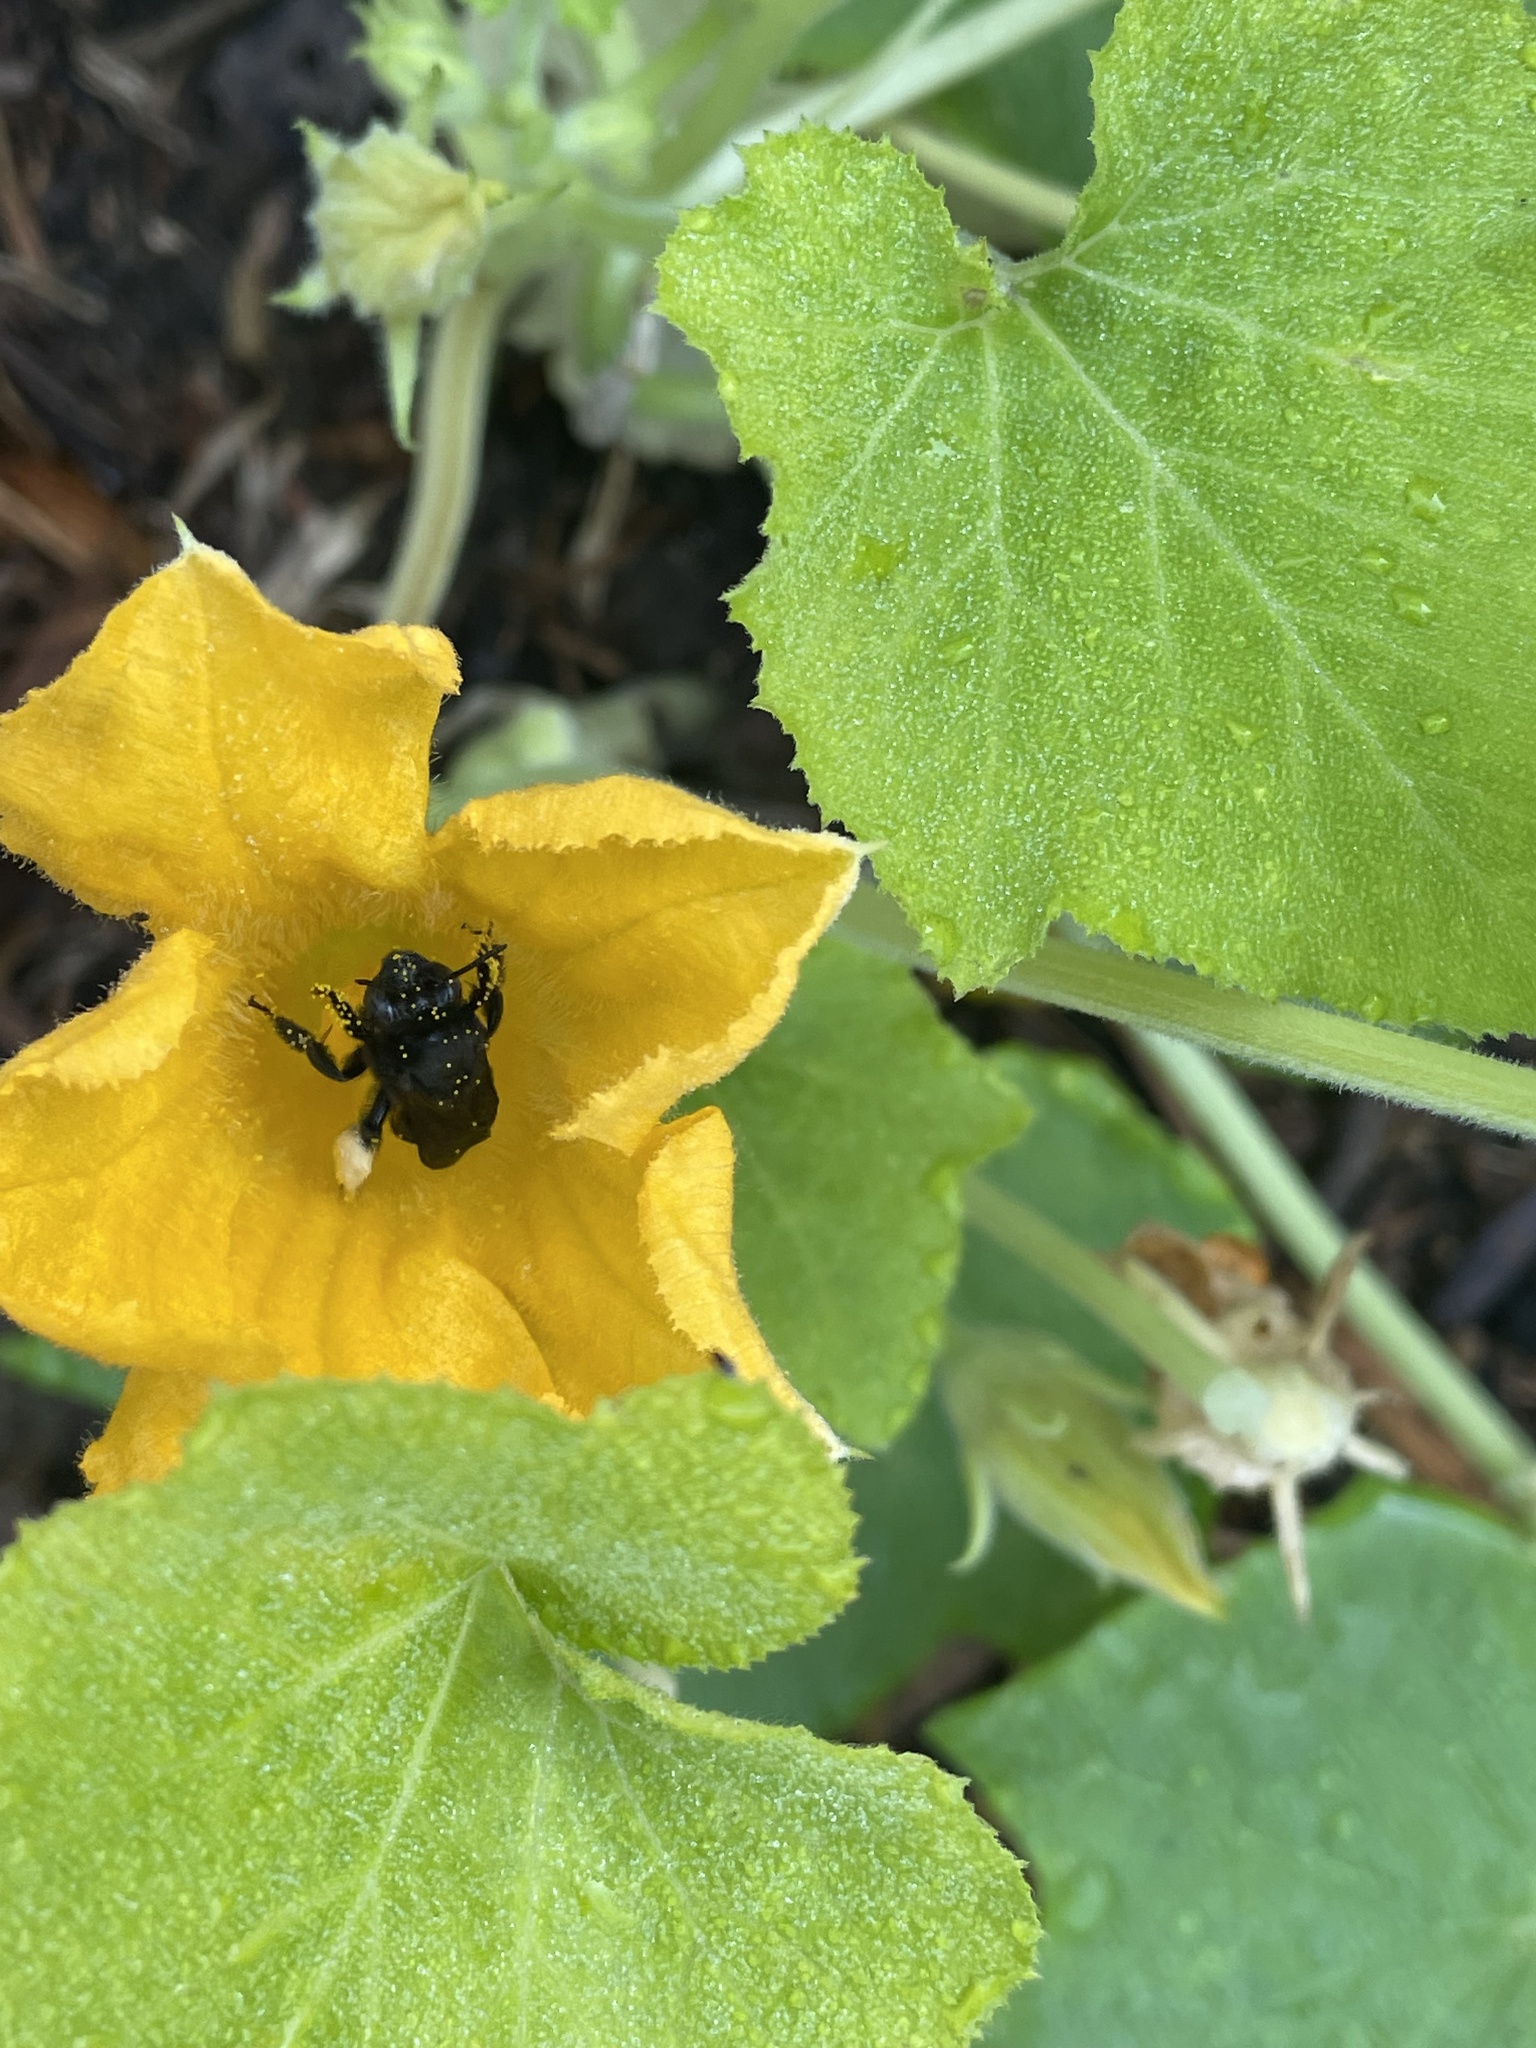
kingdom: Animalia
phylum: Arthropoda
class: Insecta
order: Hymenoptera
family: Apidae
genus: Melissodes
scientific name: Melissodes bimaculatus
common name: Two-spotted long-horned bee
